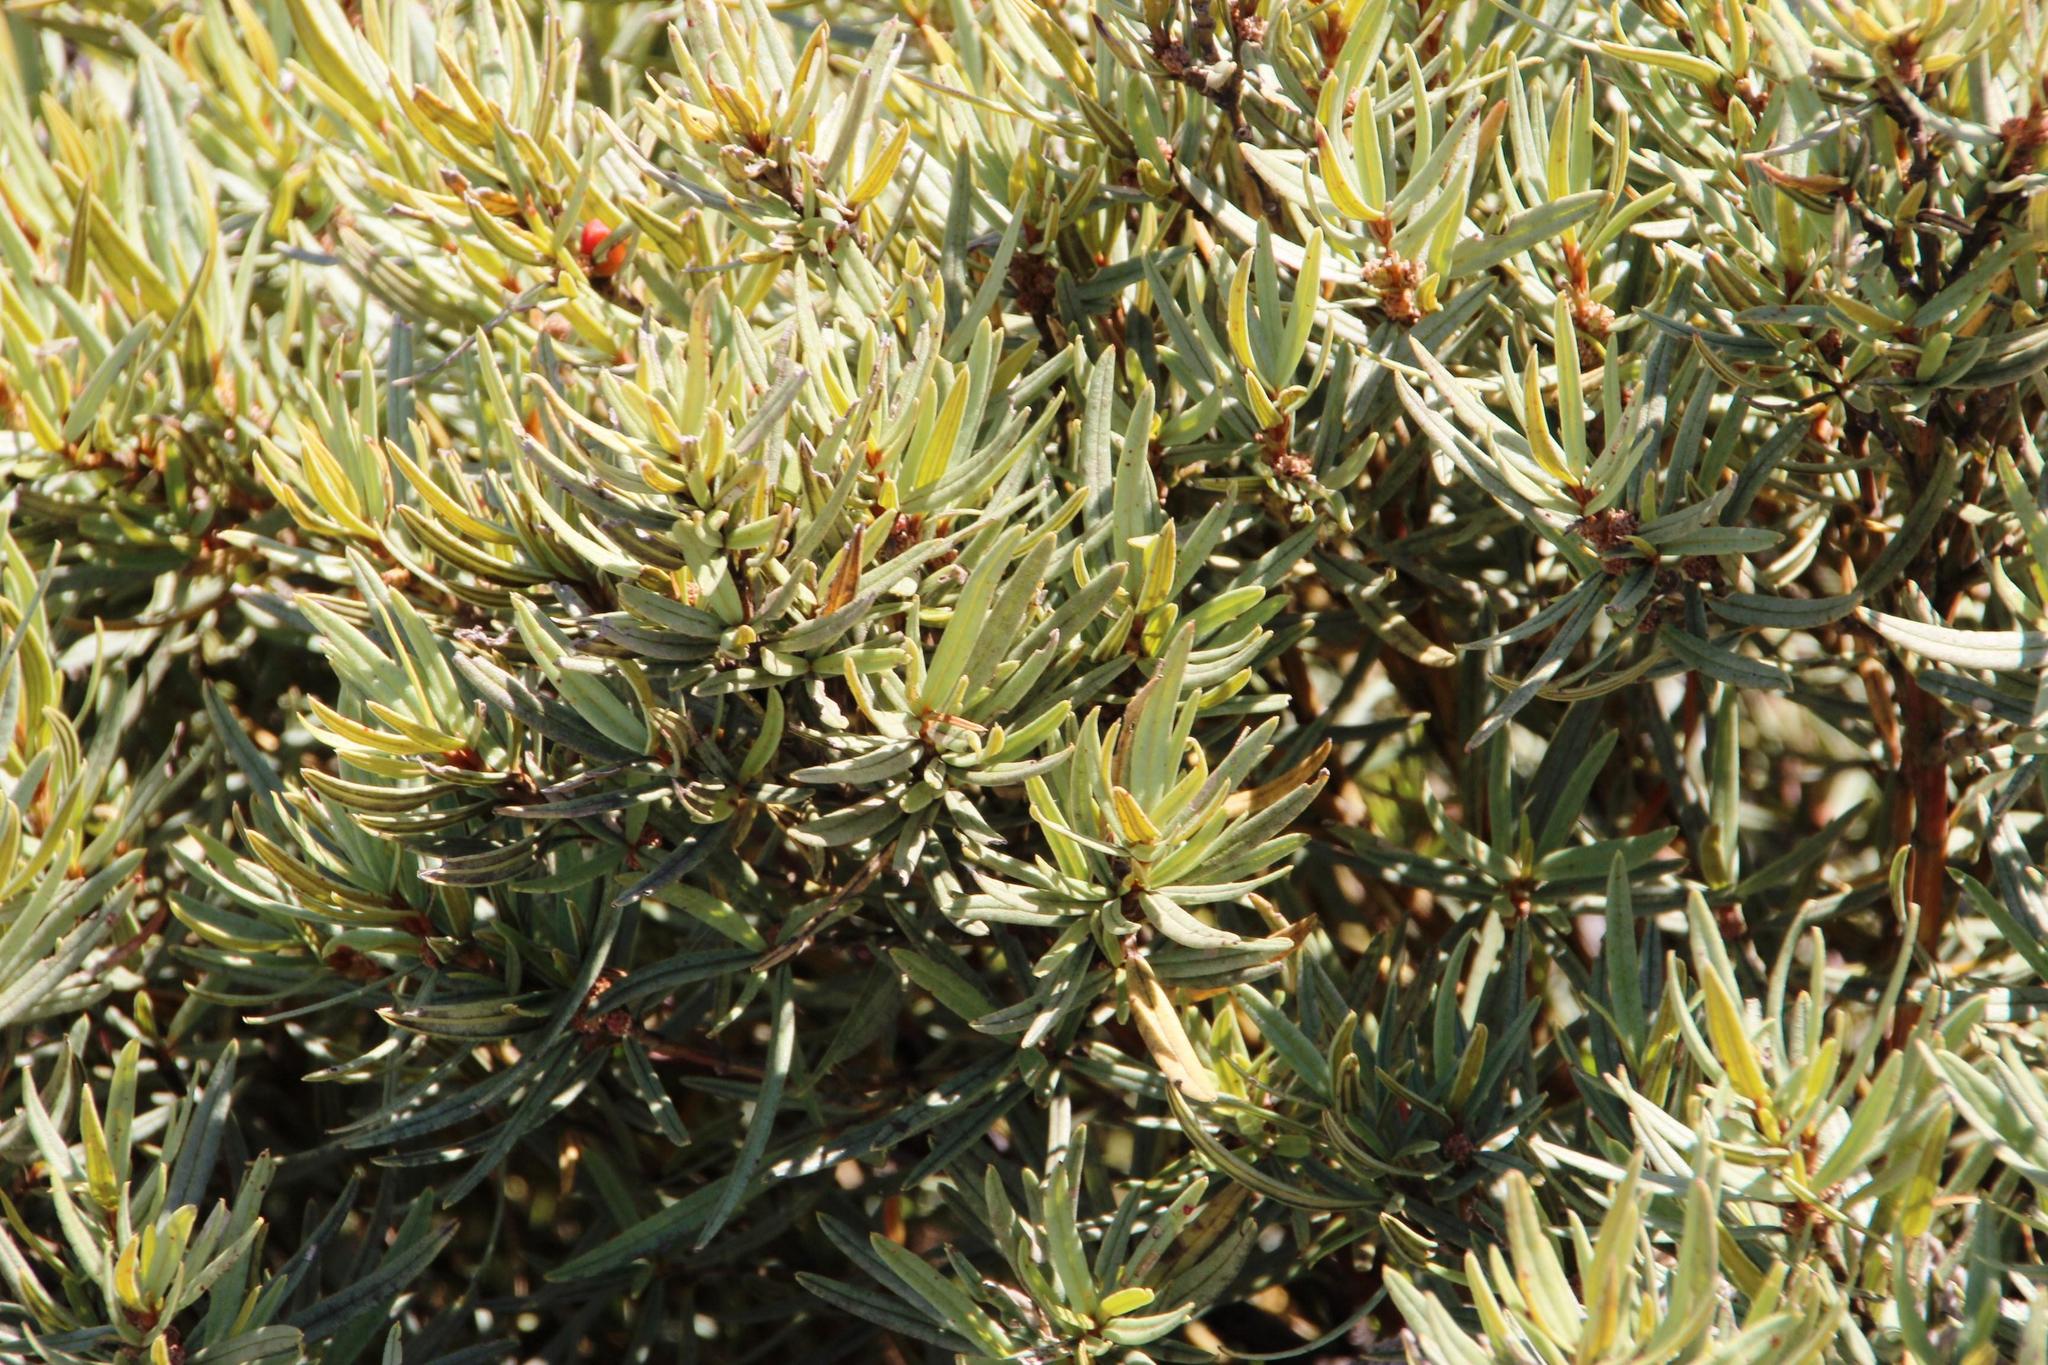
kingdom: Plantae
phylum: Tracheophyta
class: Magnoliopsida
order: Cornales
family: Grubbiaceae
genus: Grubbia
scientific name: Grubbia tomentosa
